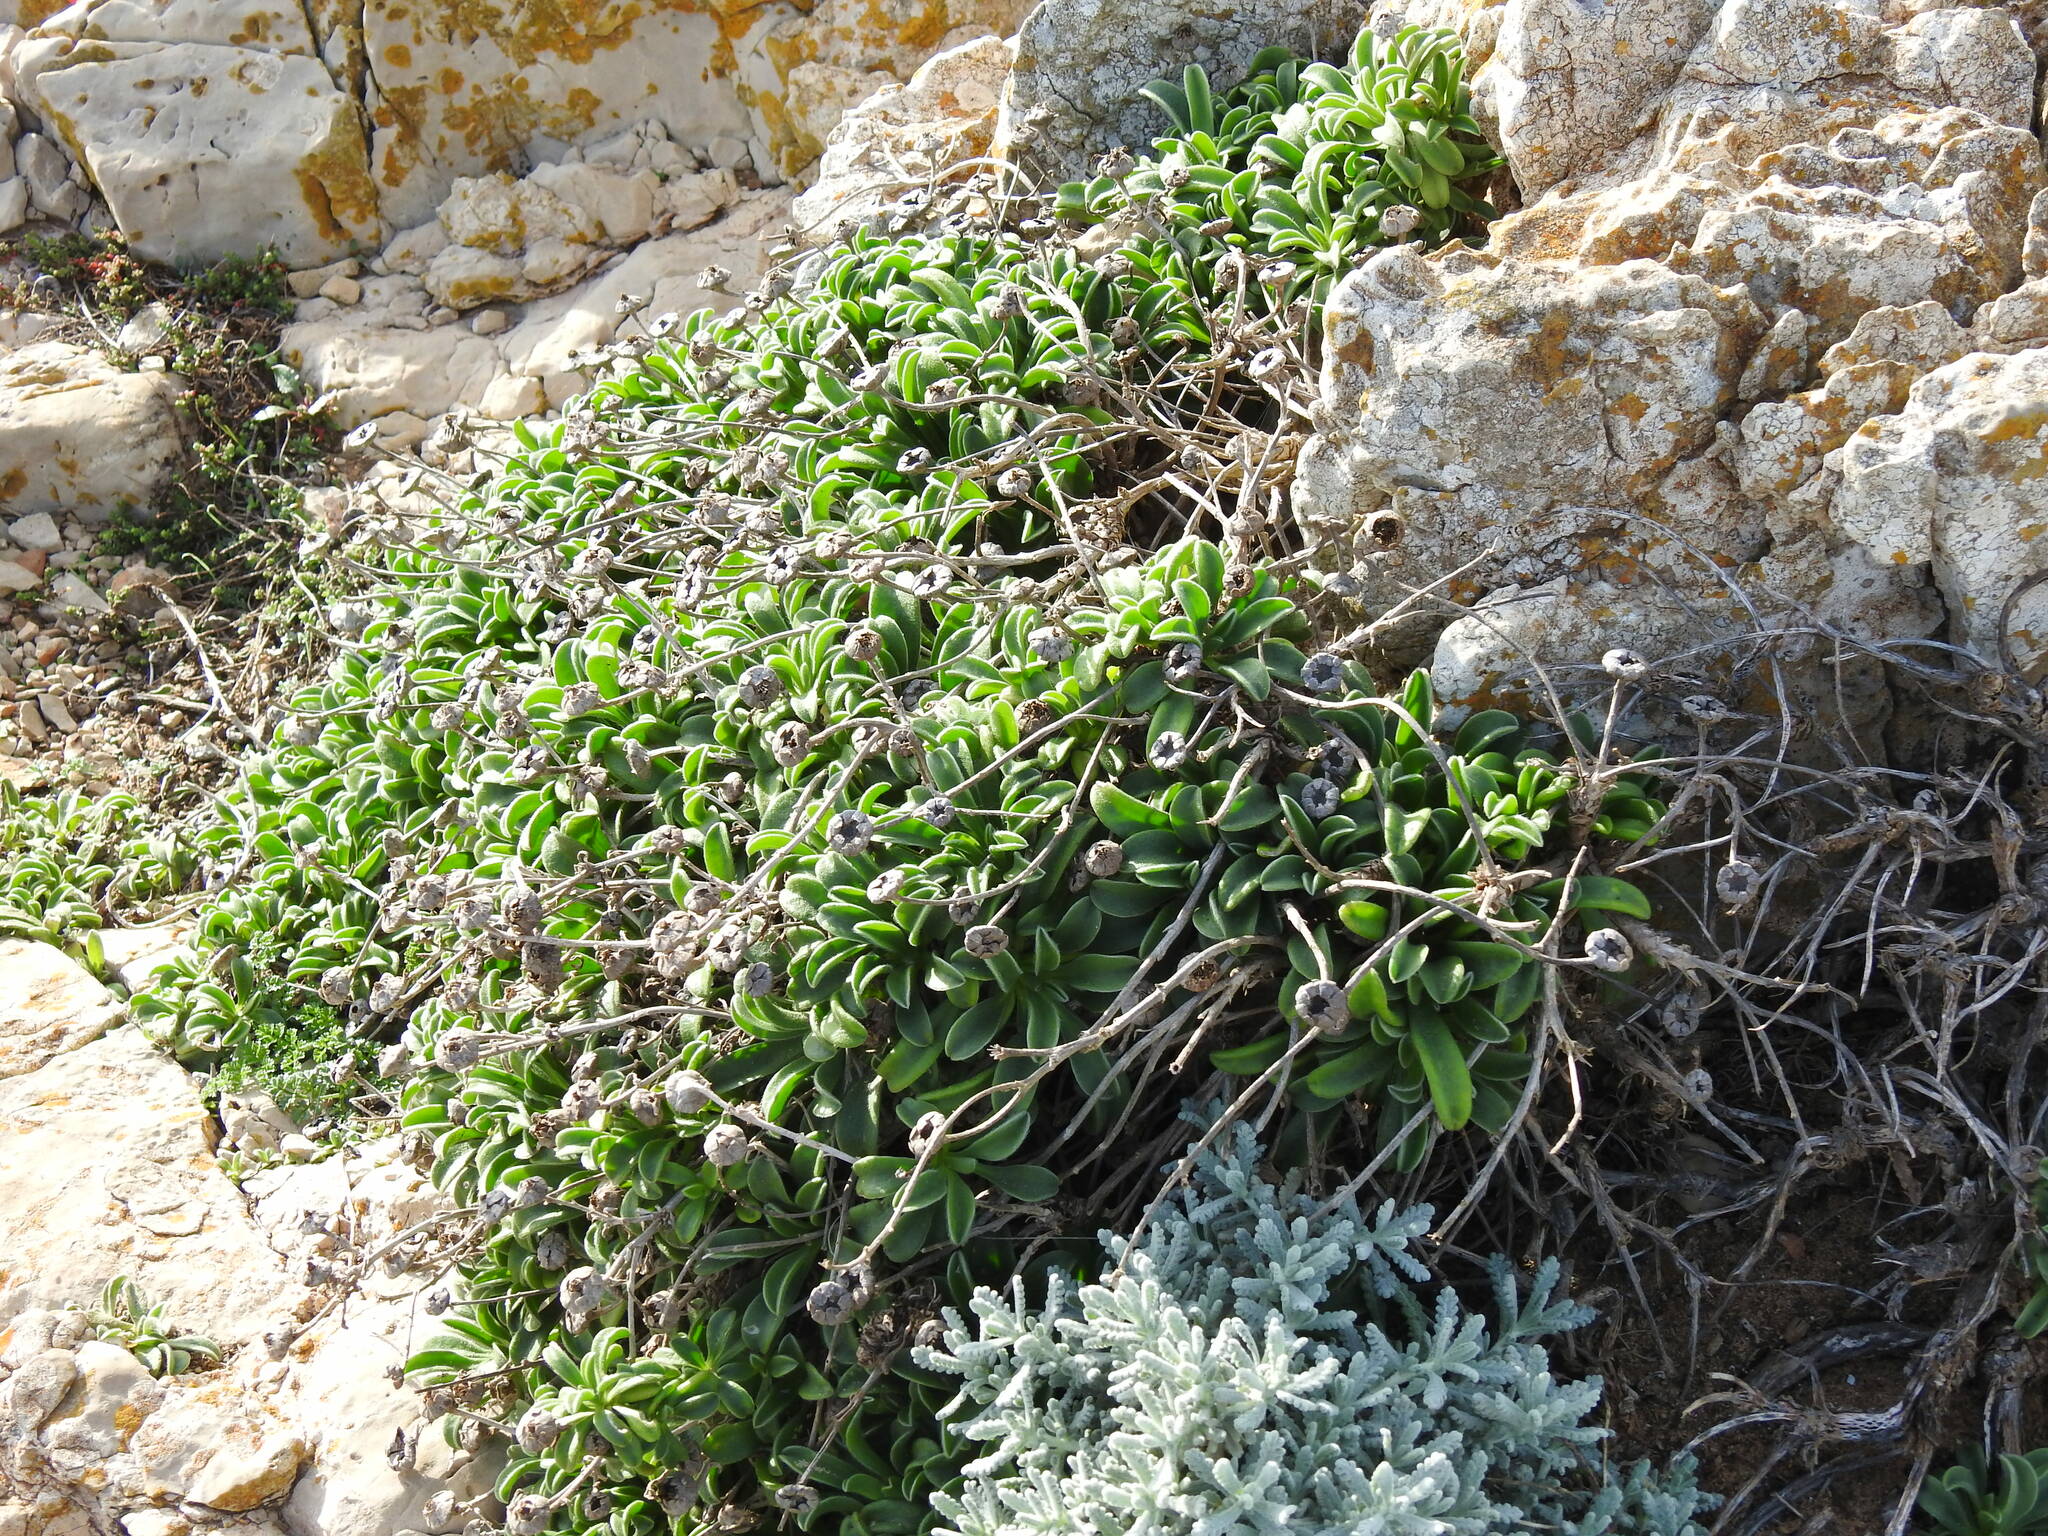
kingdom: Plantae
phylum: Tracheophyta
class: Magnoliopsida
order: Asterales
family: Asteraceae
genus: Pallenis
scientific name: Pallenis maritima
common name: Golden coin daisy
